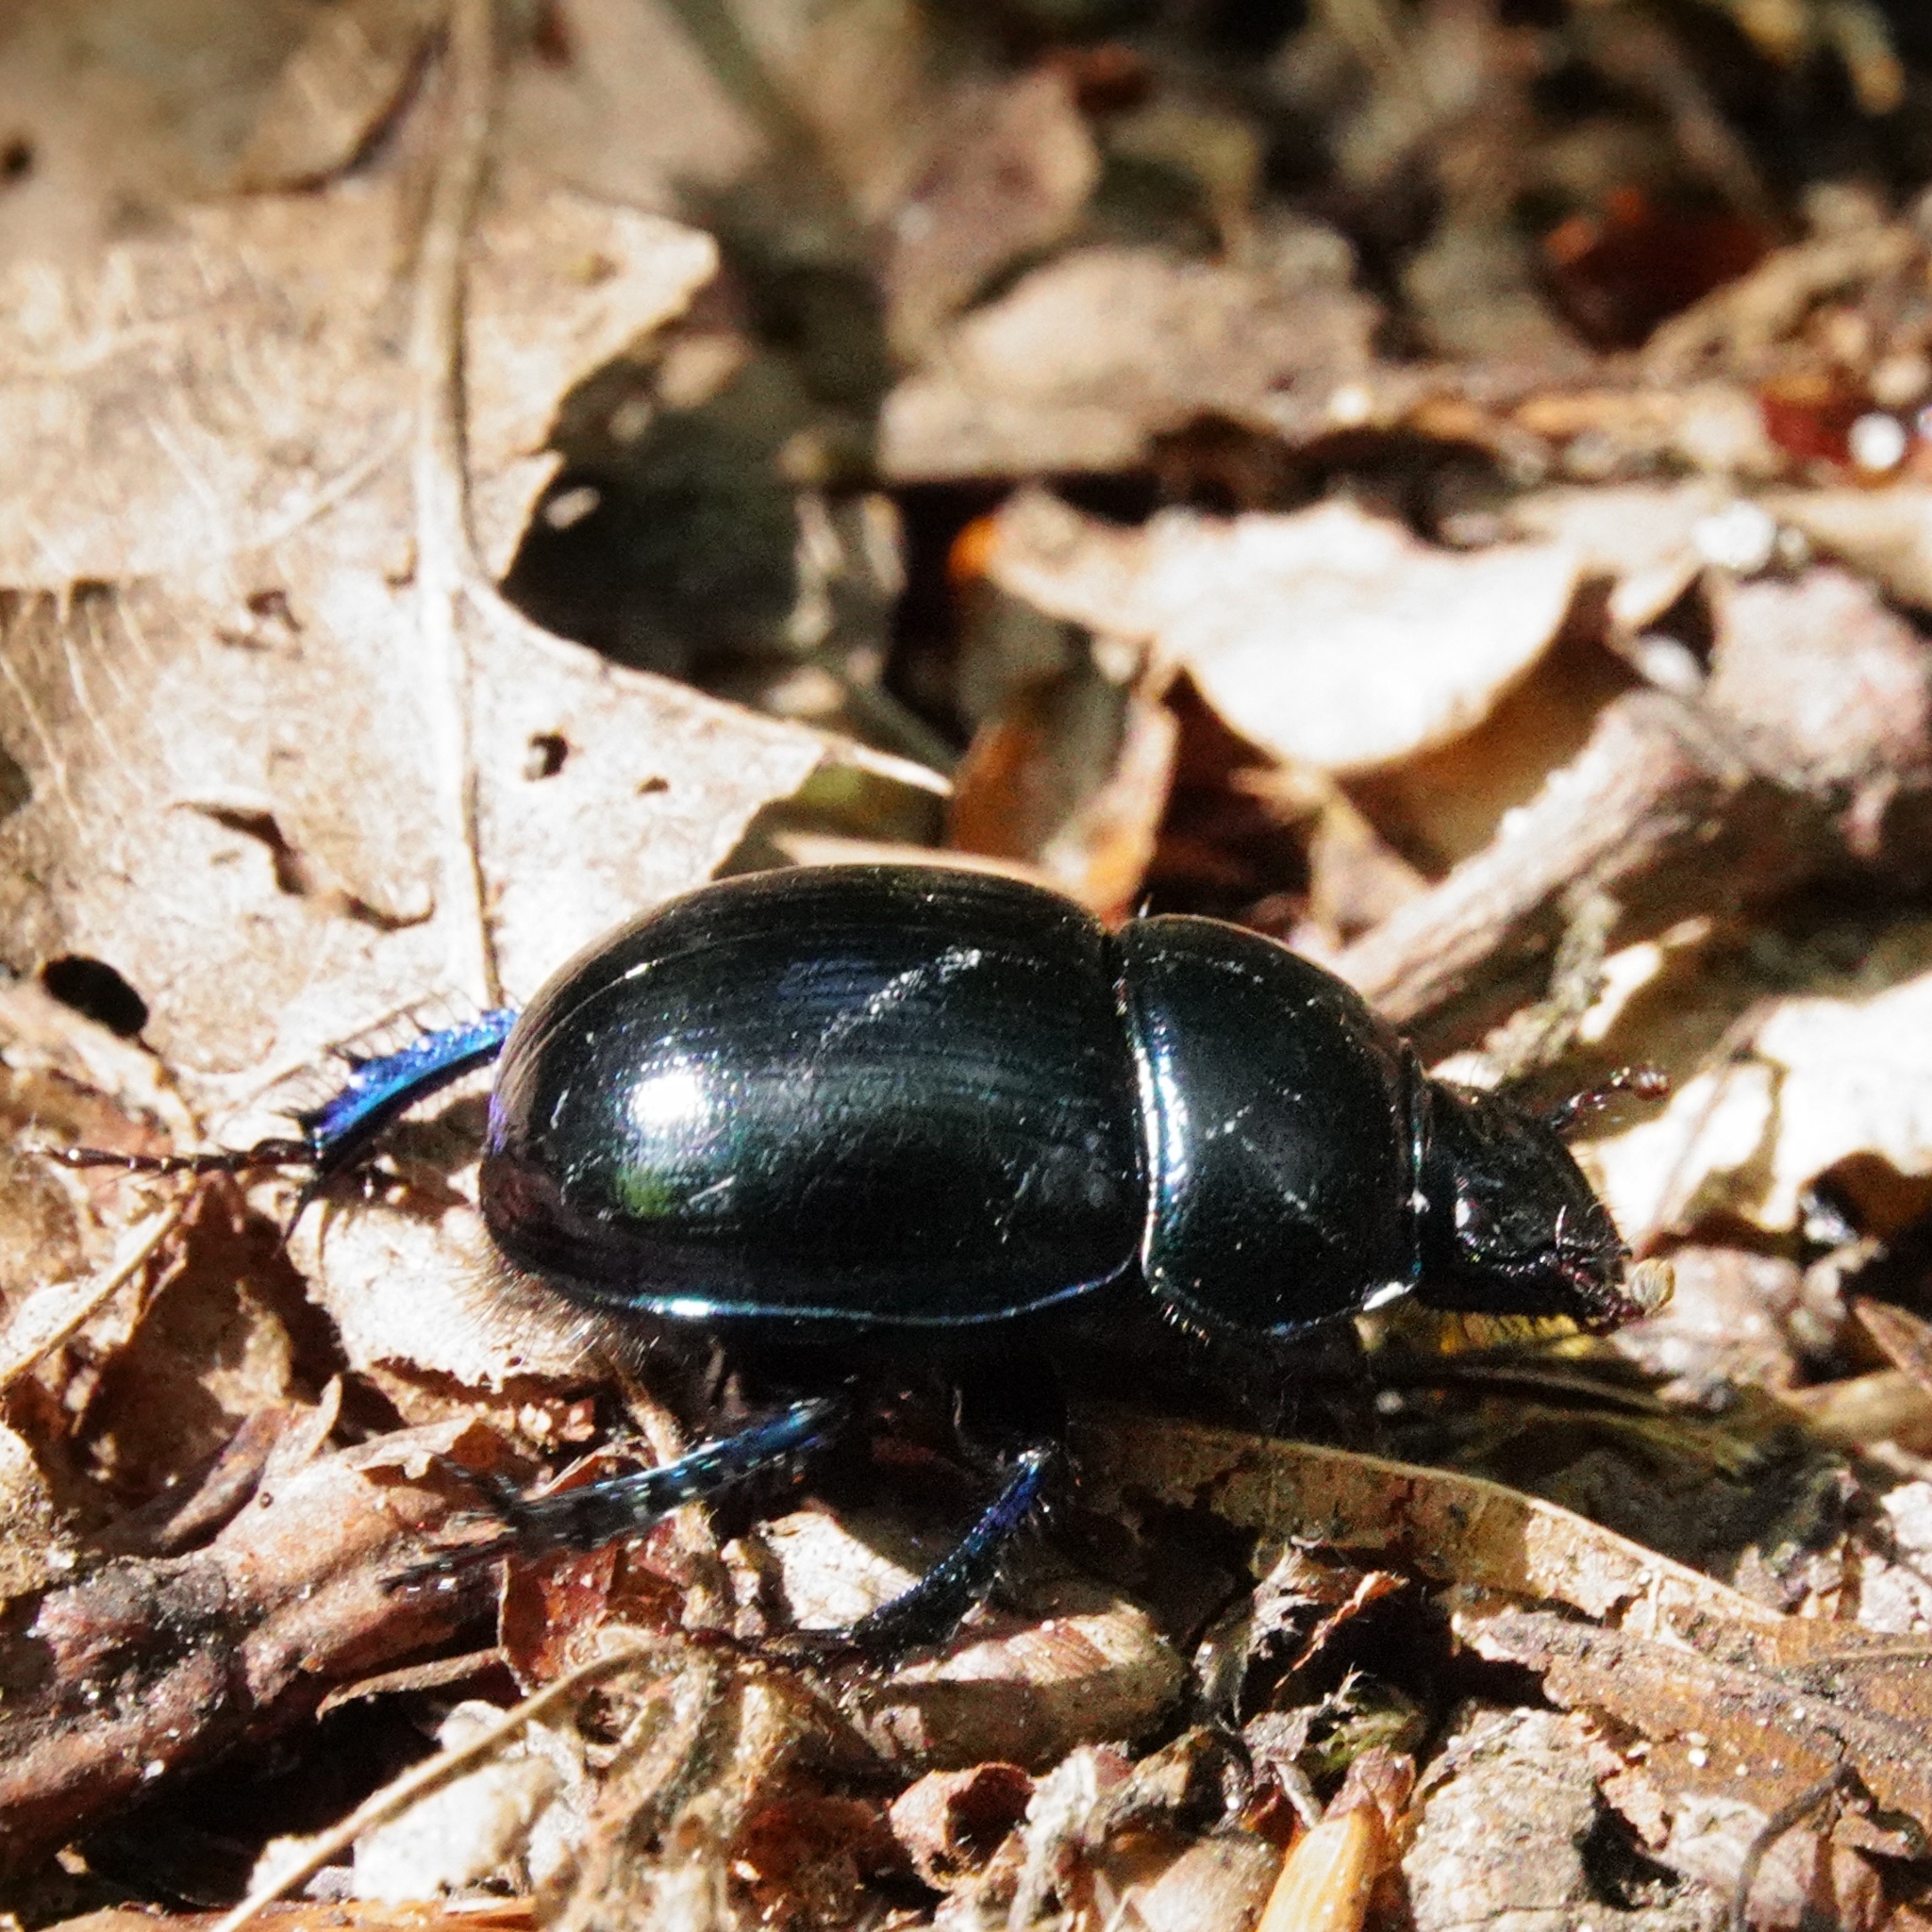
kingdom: Animalia
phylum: Arthropoda
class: Insecta
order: Coleoptera
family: Geotrupidae
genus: Anoplotrupes
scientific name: Anoplotrupes stercorosus
